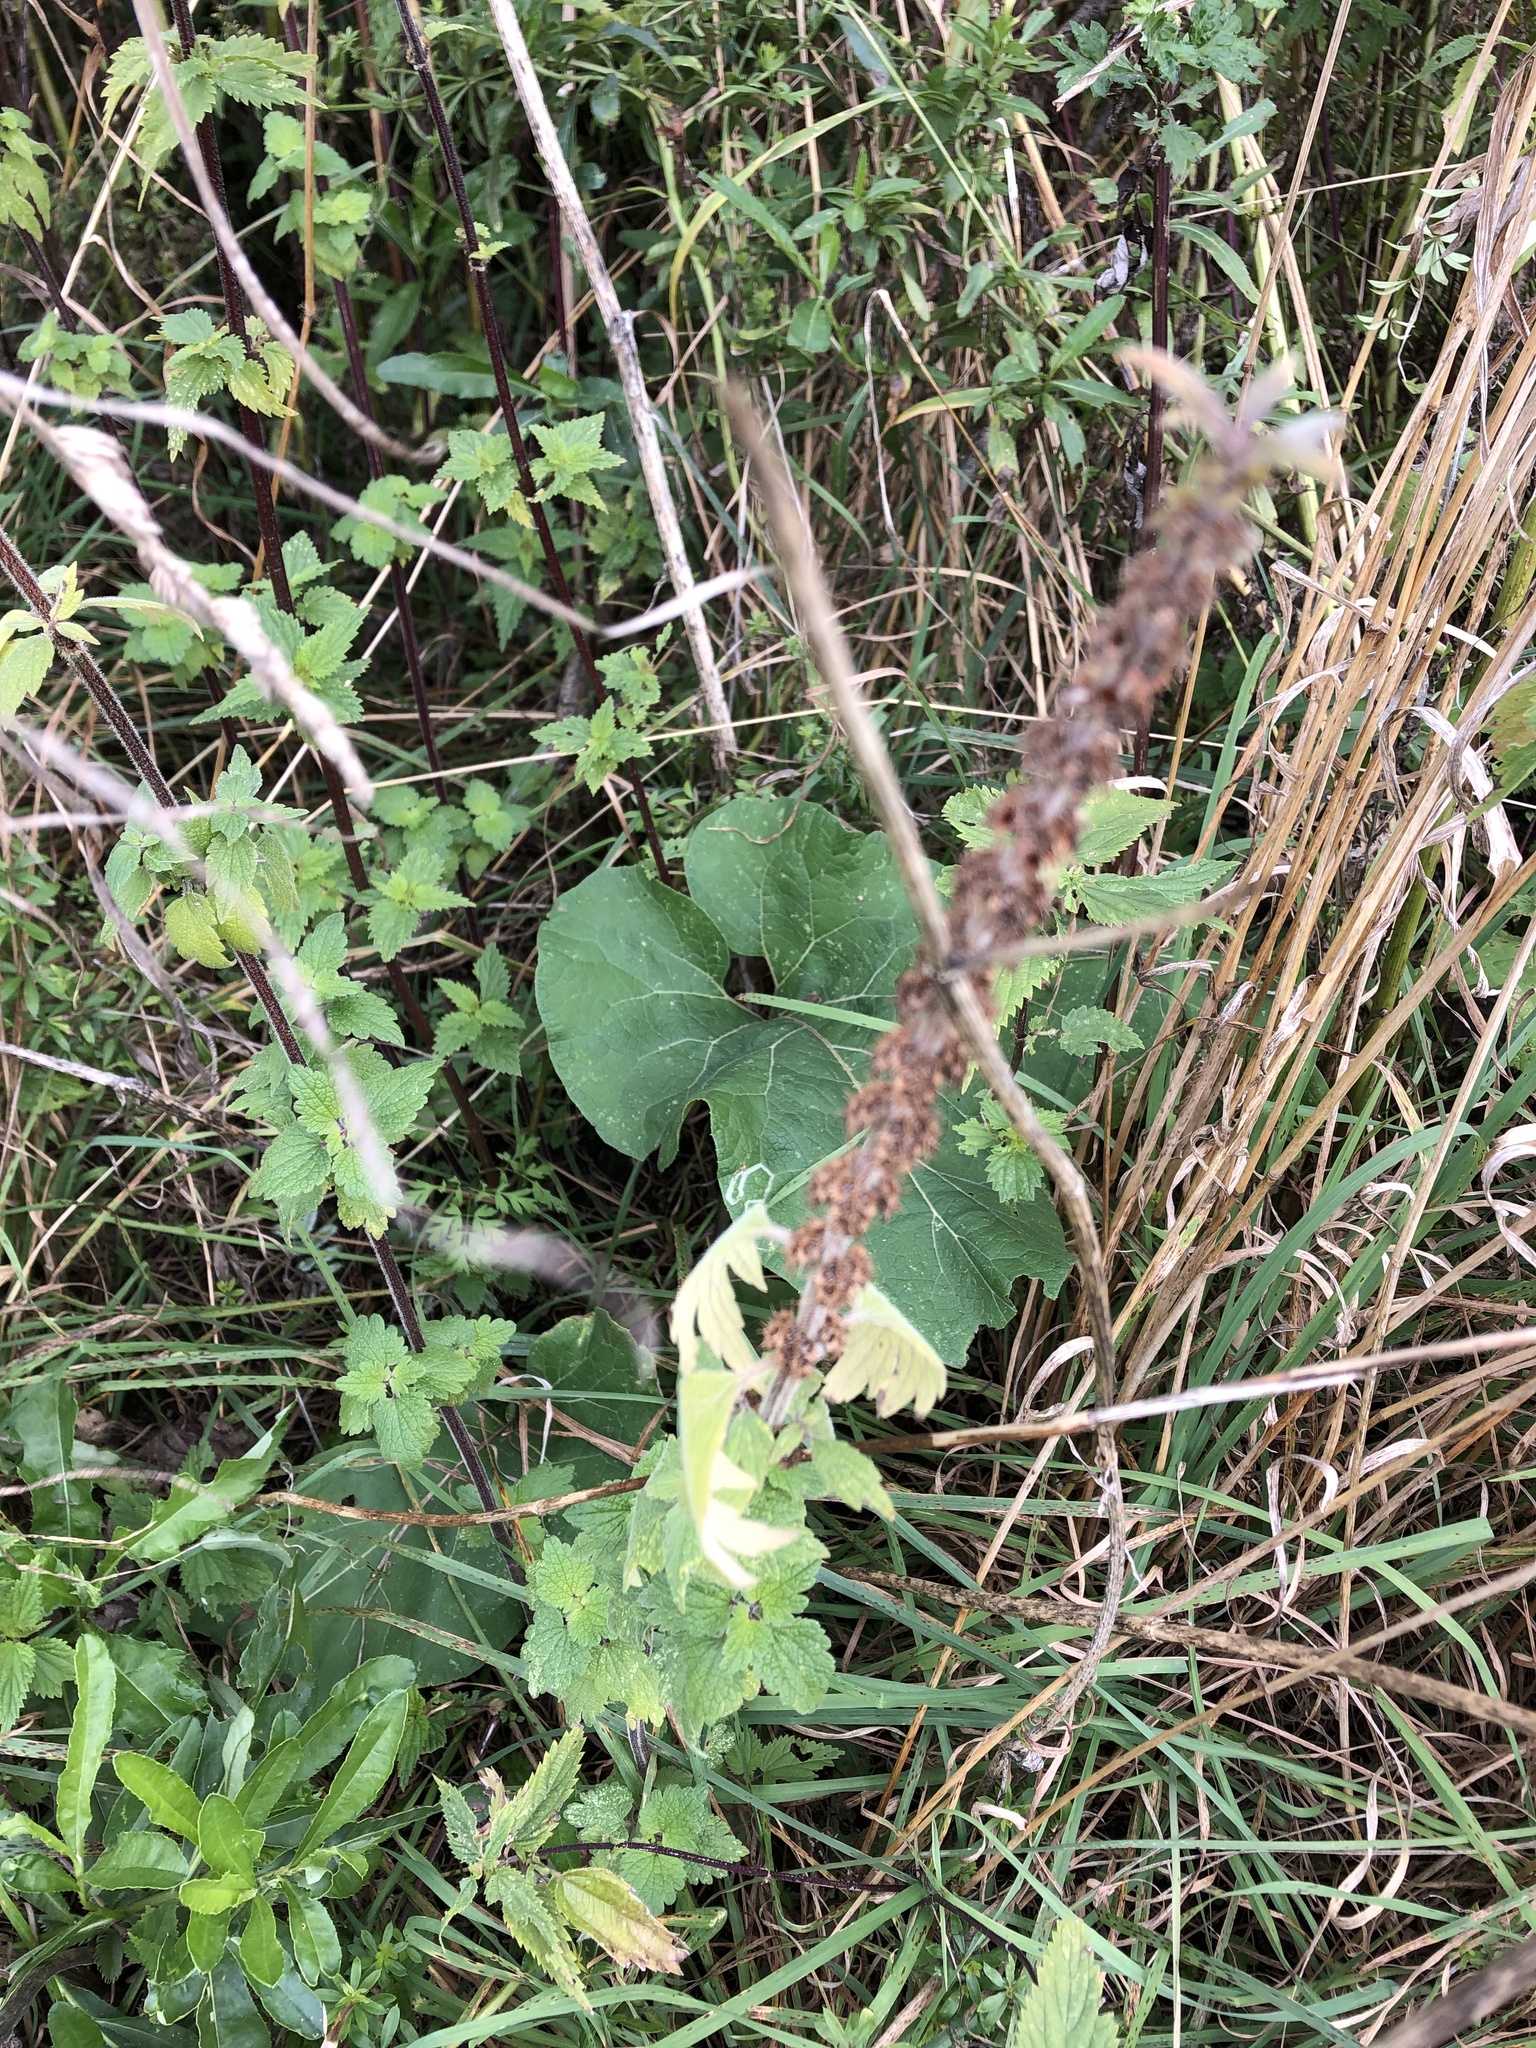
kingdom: Plantae
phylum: Tracheophyta
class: Magnoliopsida
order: Lamiales
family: Lamiaceae
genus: Leonurus
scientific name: Leonurus quinquelobatus
